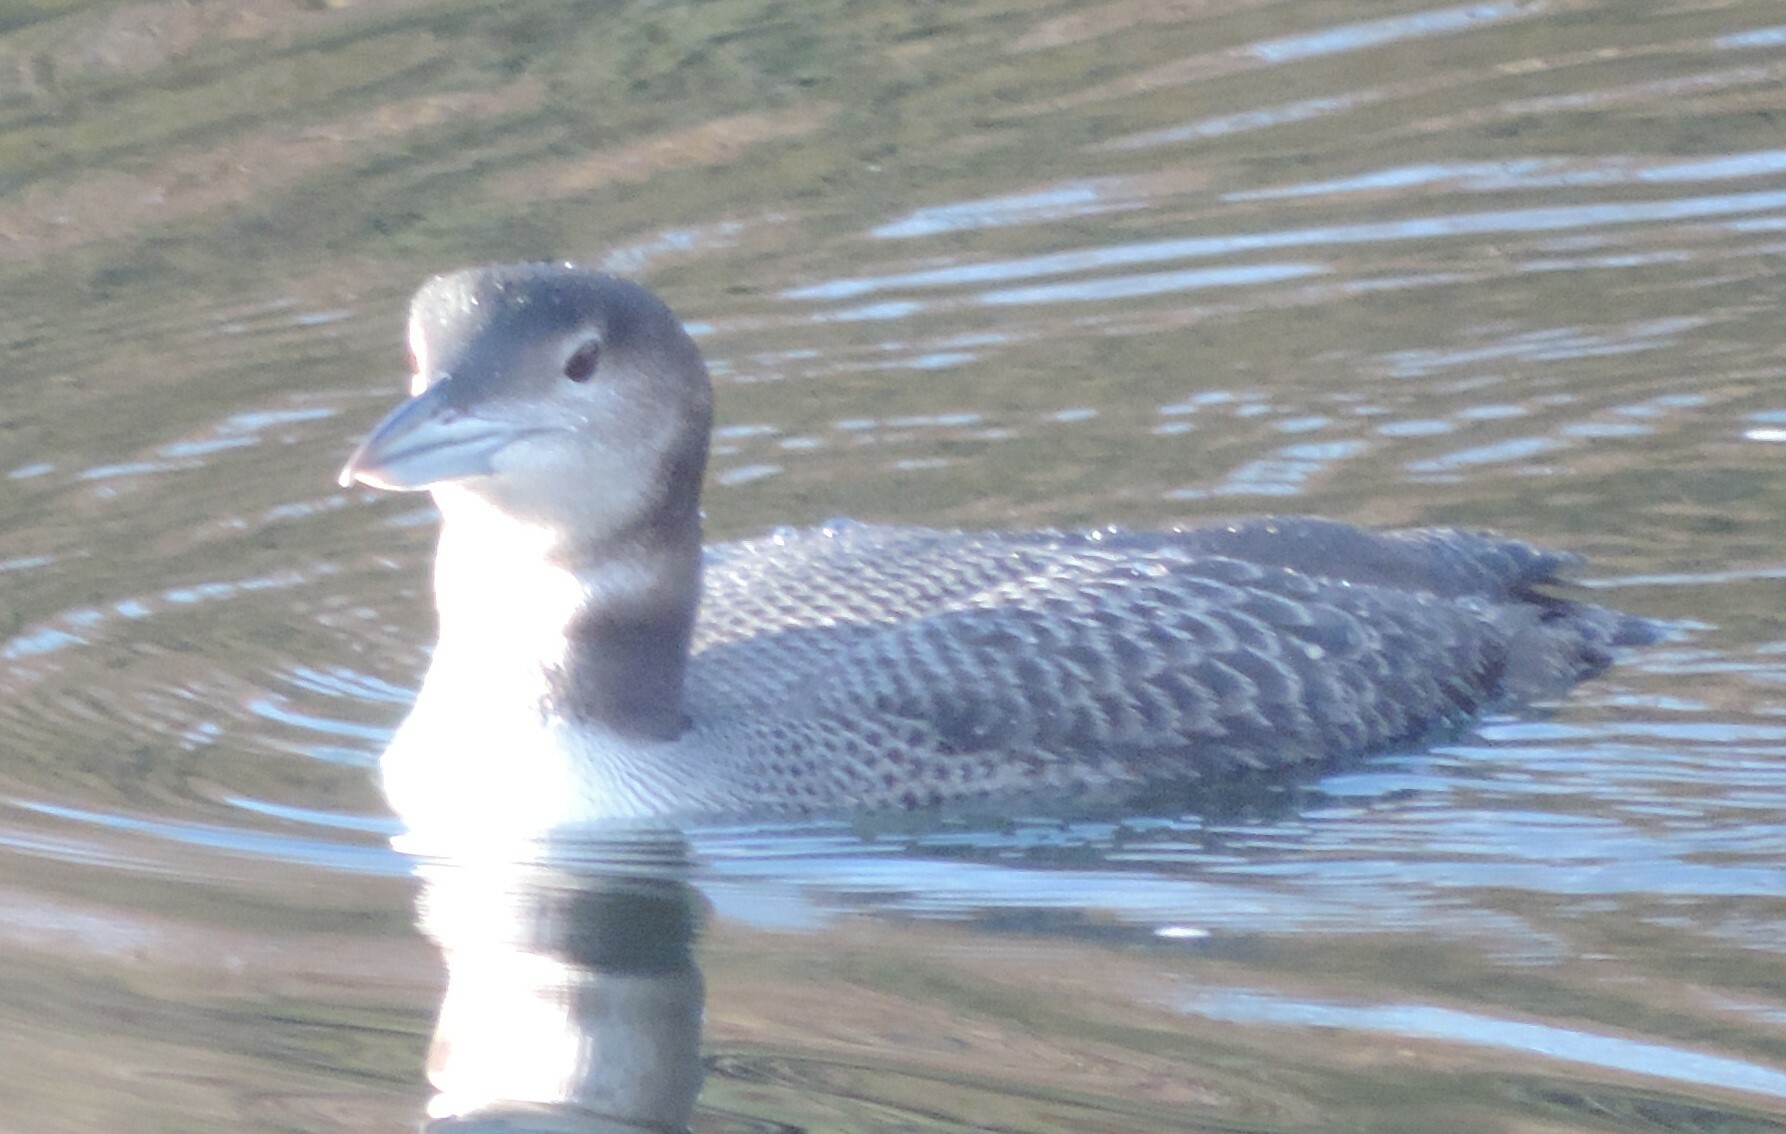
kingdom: Animalia
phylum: Chordata
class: Aves
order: Gaviiformes
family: Gaviidae
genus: Gavia
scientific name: Gavia immer
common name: Common loon
